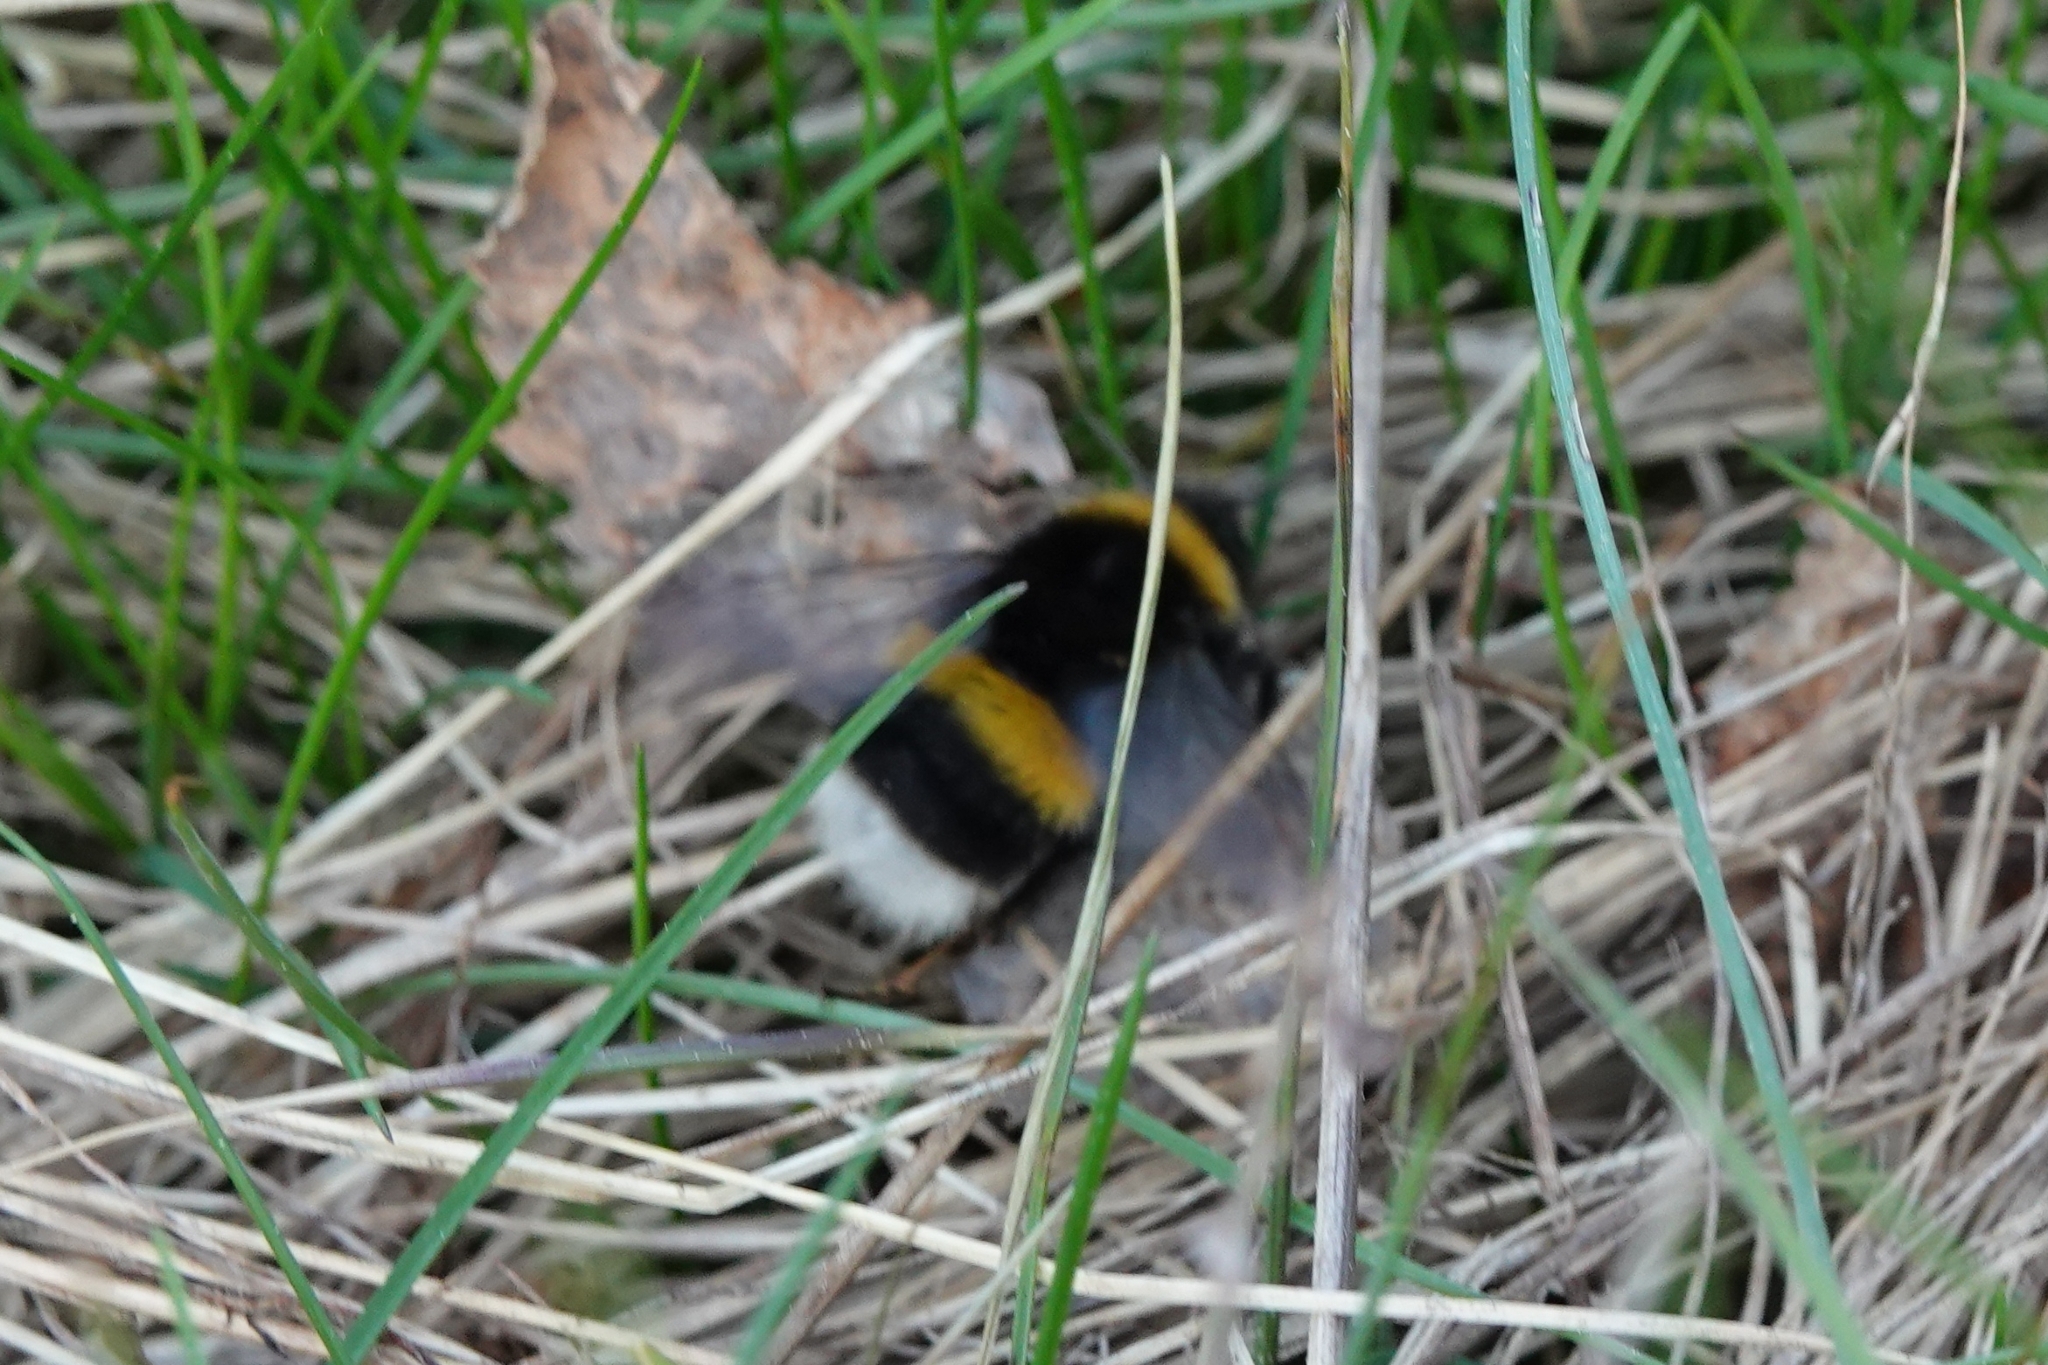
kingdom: Animalia
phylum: Arthropoda
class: Insecta
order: Hymenoptera
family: Apidae
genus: Bombus
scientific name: Bombus
